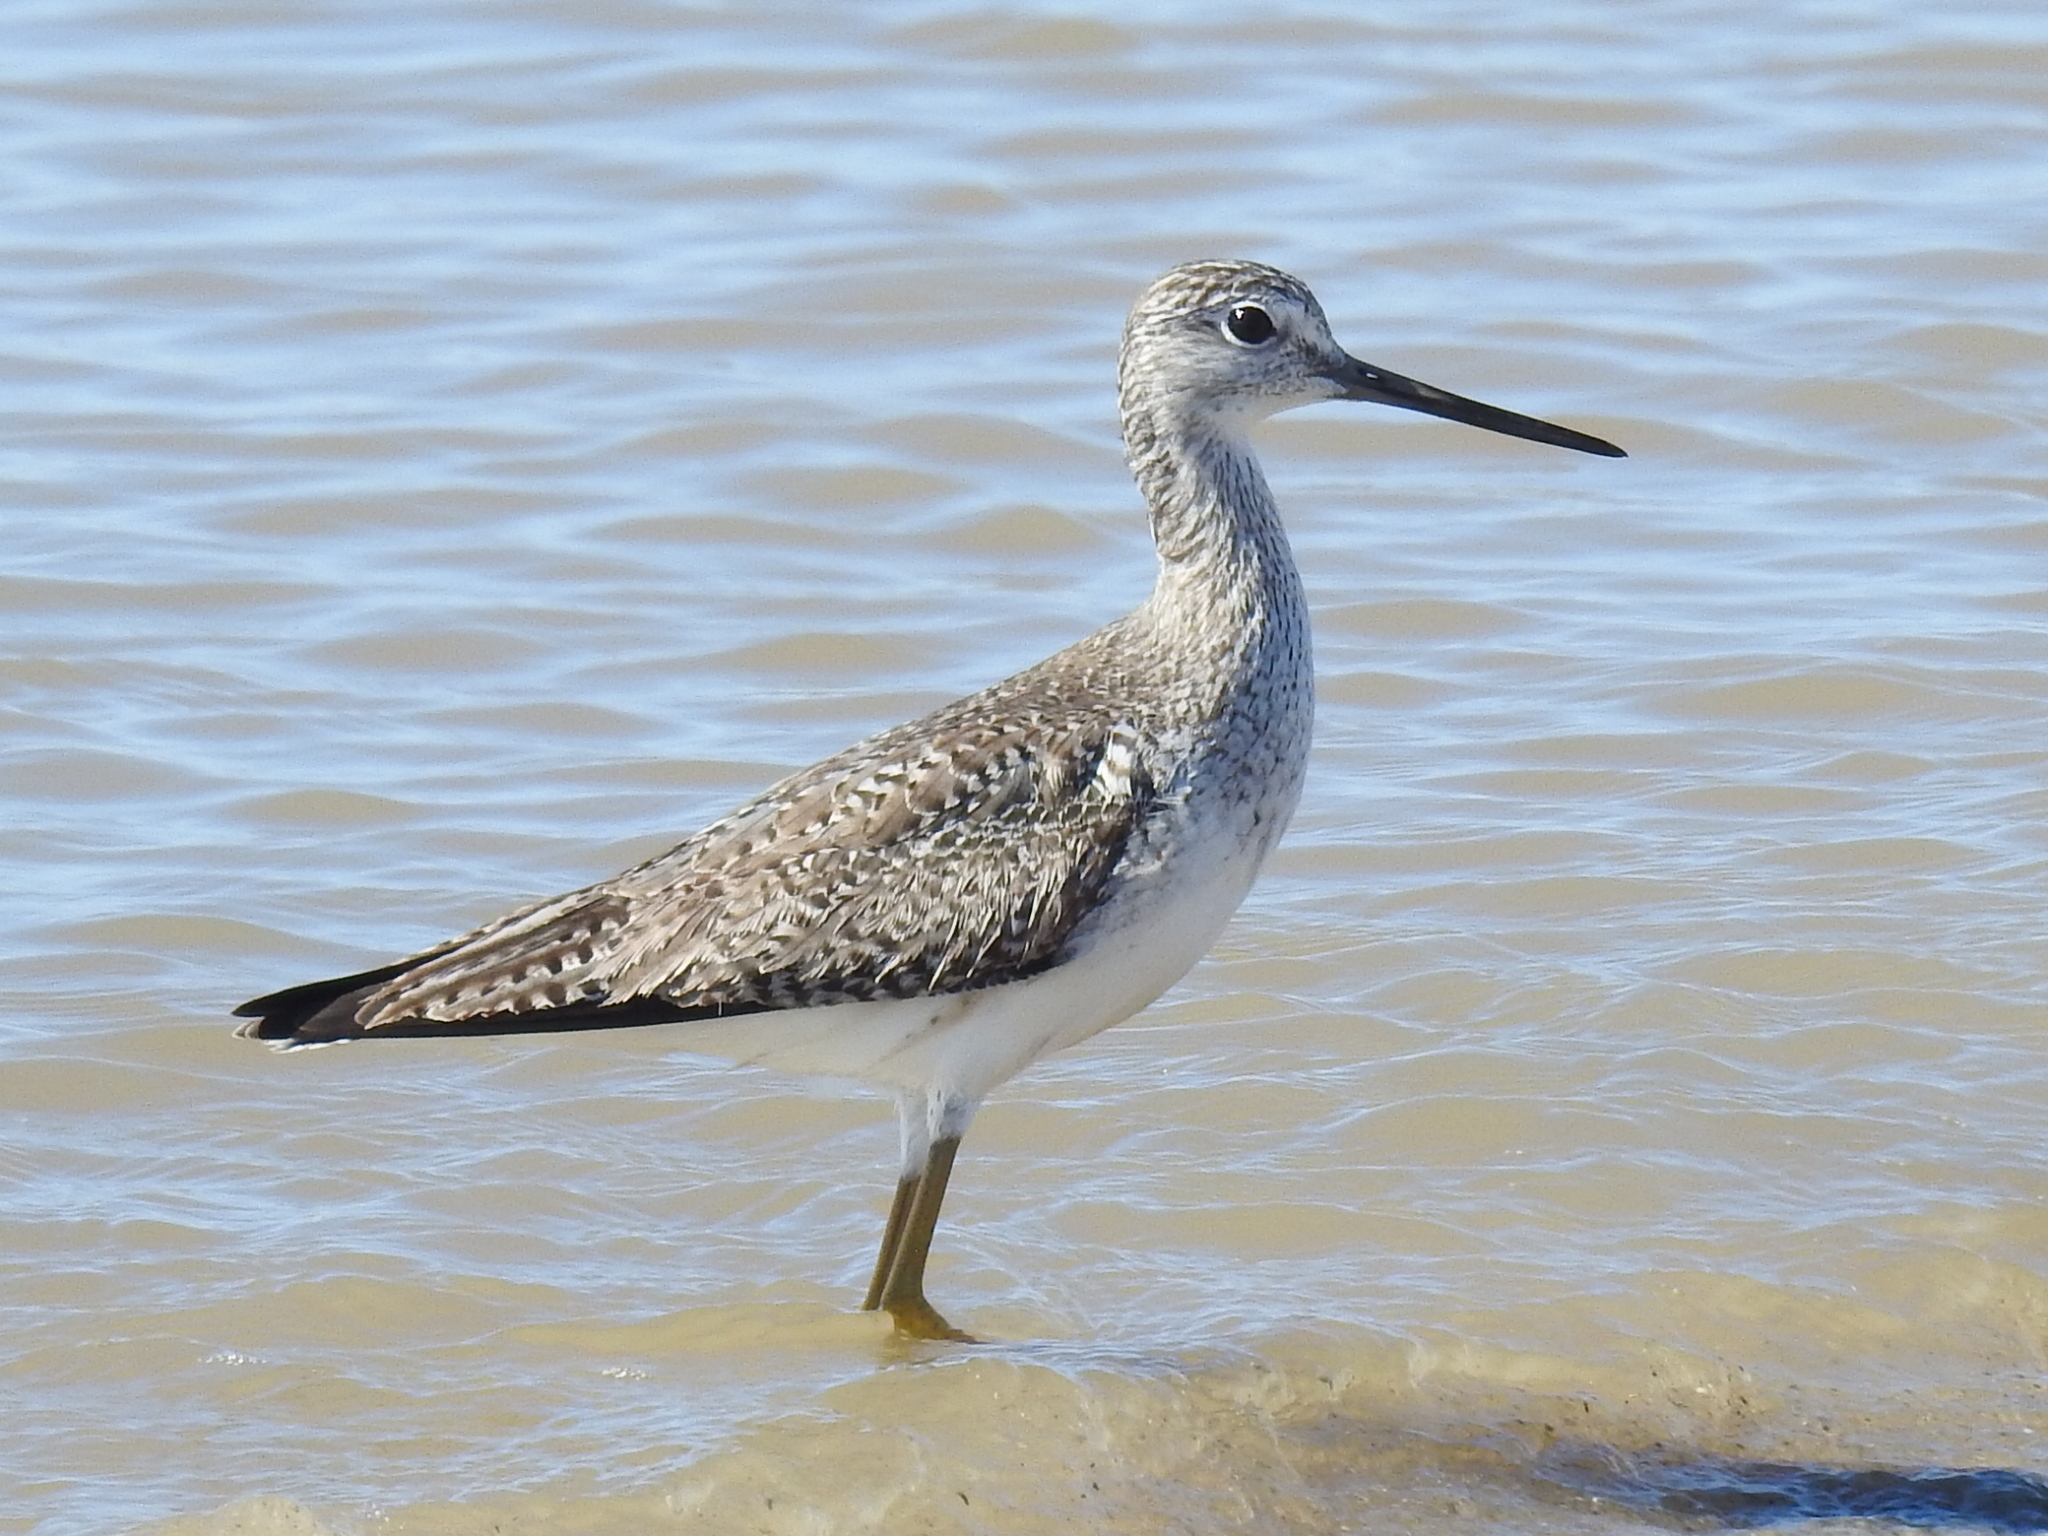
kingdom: Animalia
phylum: Chordata
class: Aves
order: Charadriiformes
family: Scolopacidae
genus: Tringa
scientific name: Tringa melanoleuca
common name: Greater yellowlegs
